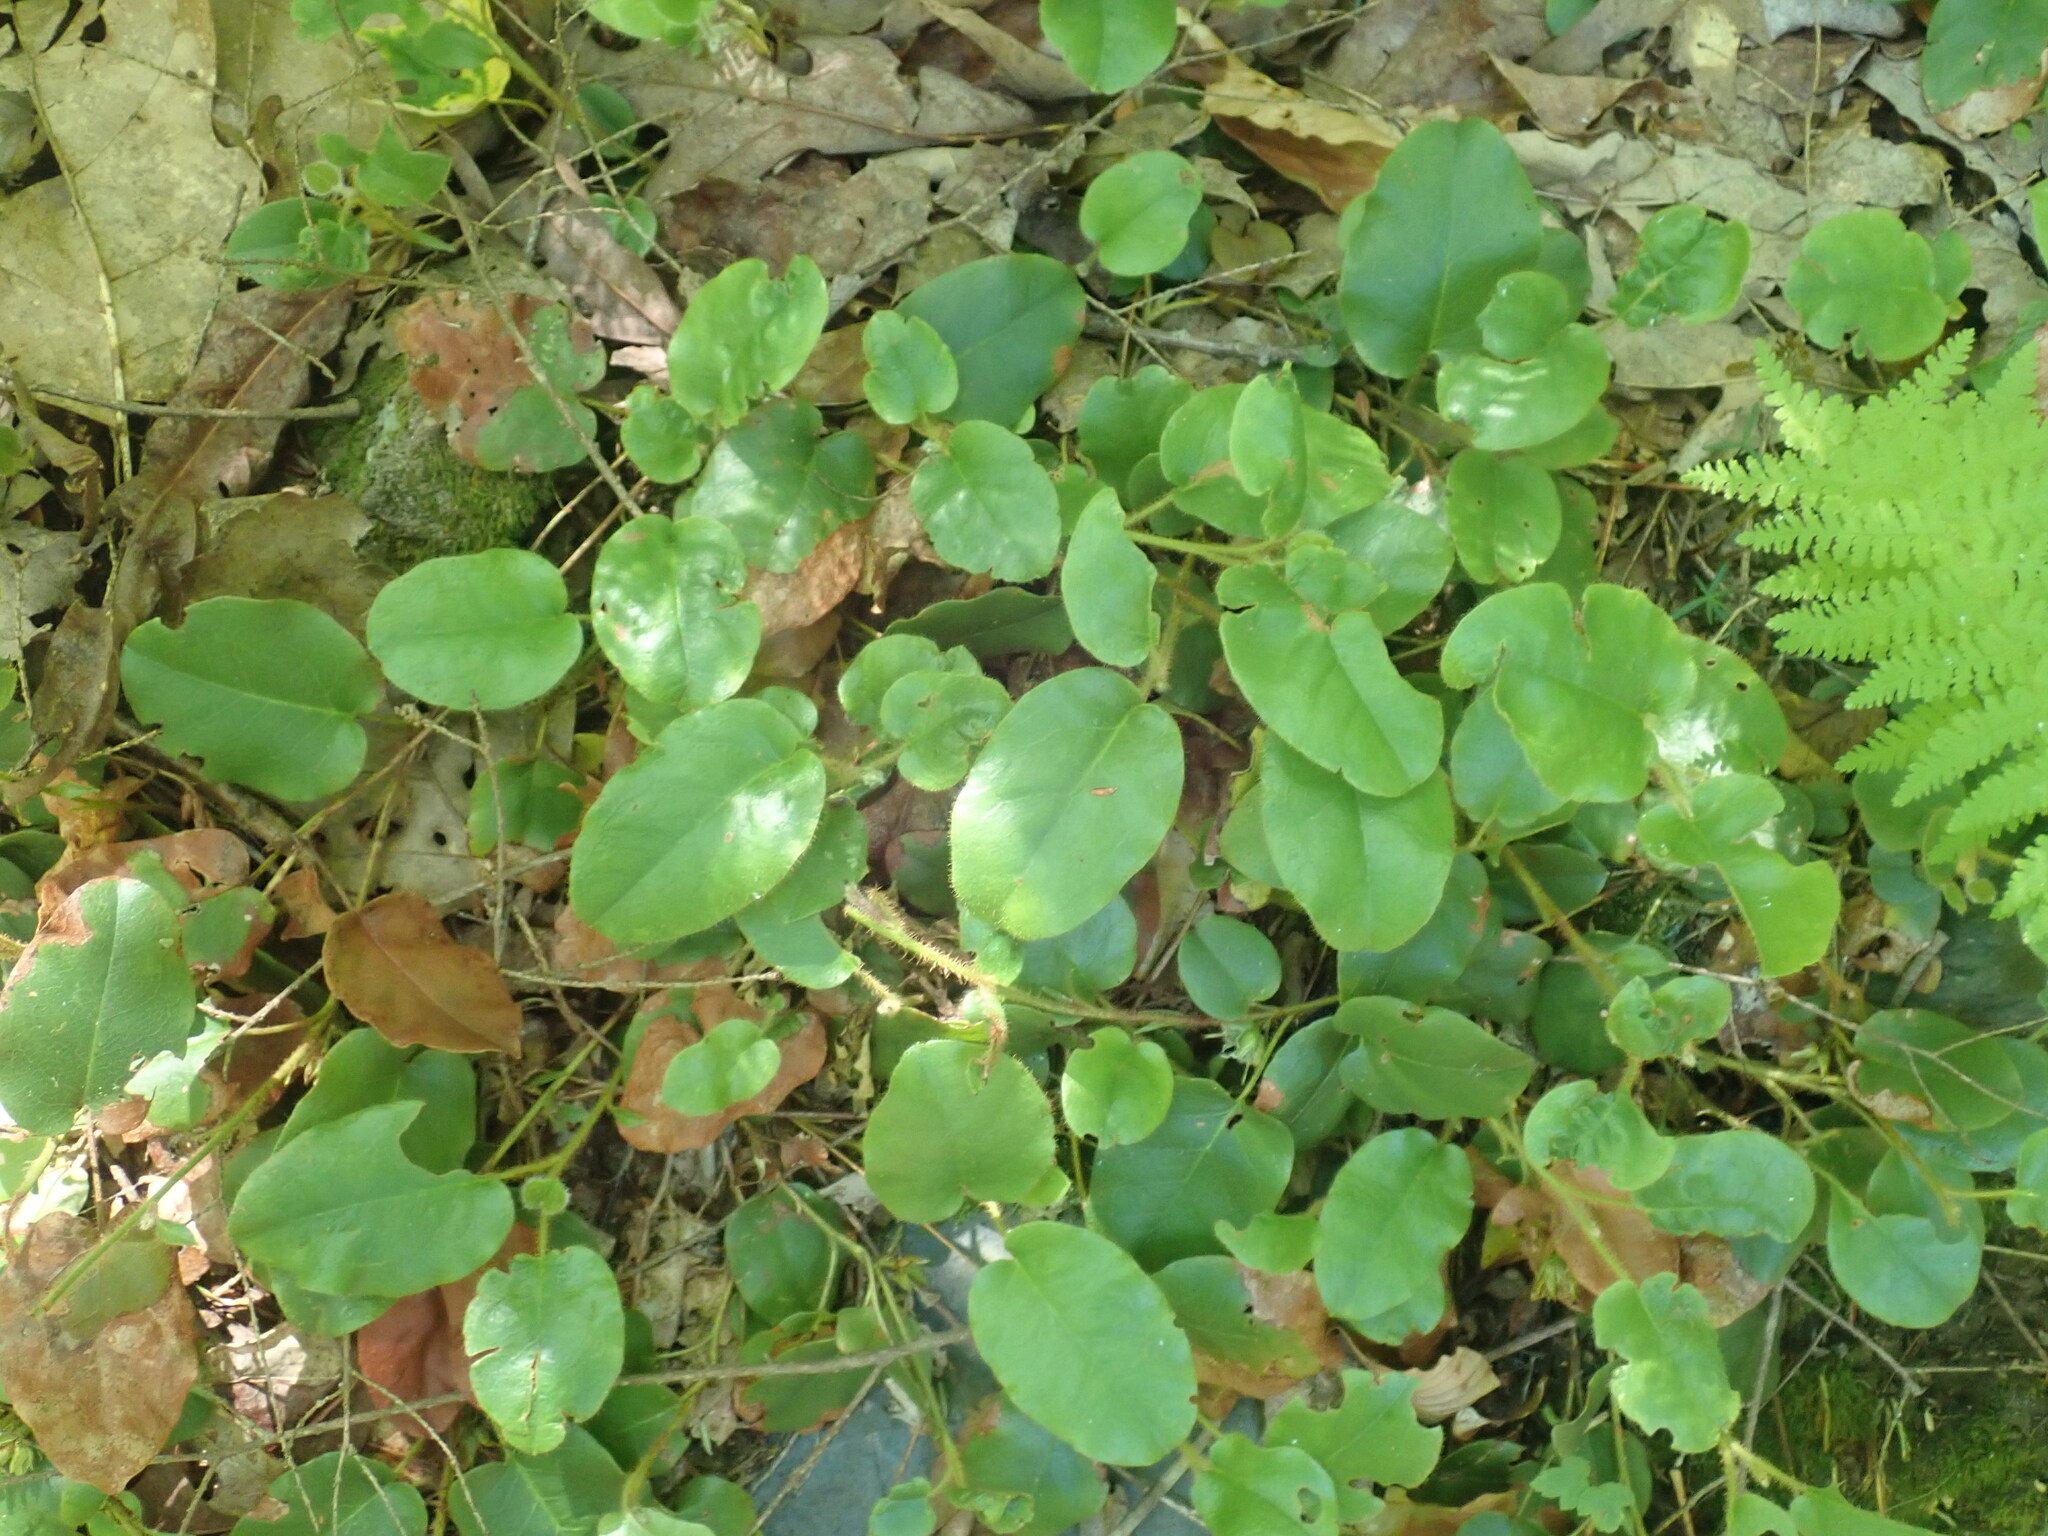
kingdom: Plantae
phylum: Tracheophyta
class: Magnoliopsida
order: Ericales
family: Ericaceae
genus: Epigaea
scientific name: Epigaea repens
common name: Gravelroot
